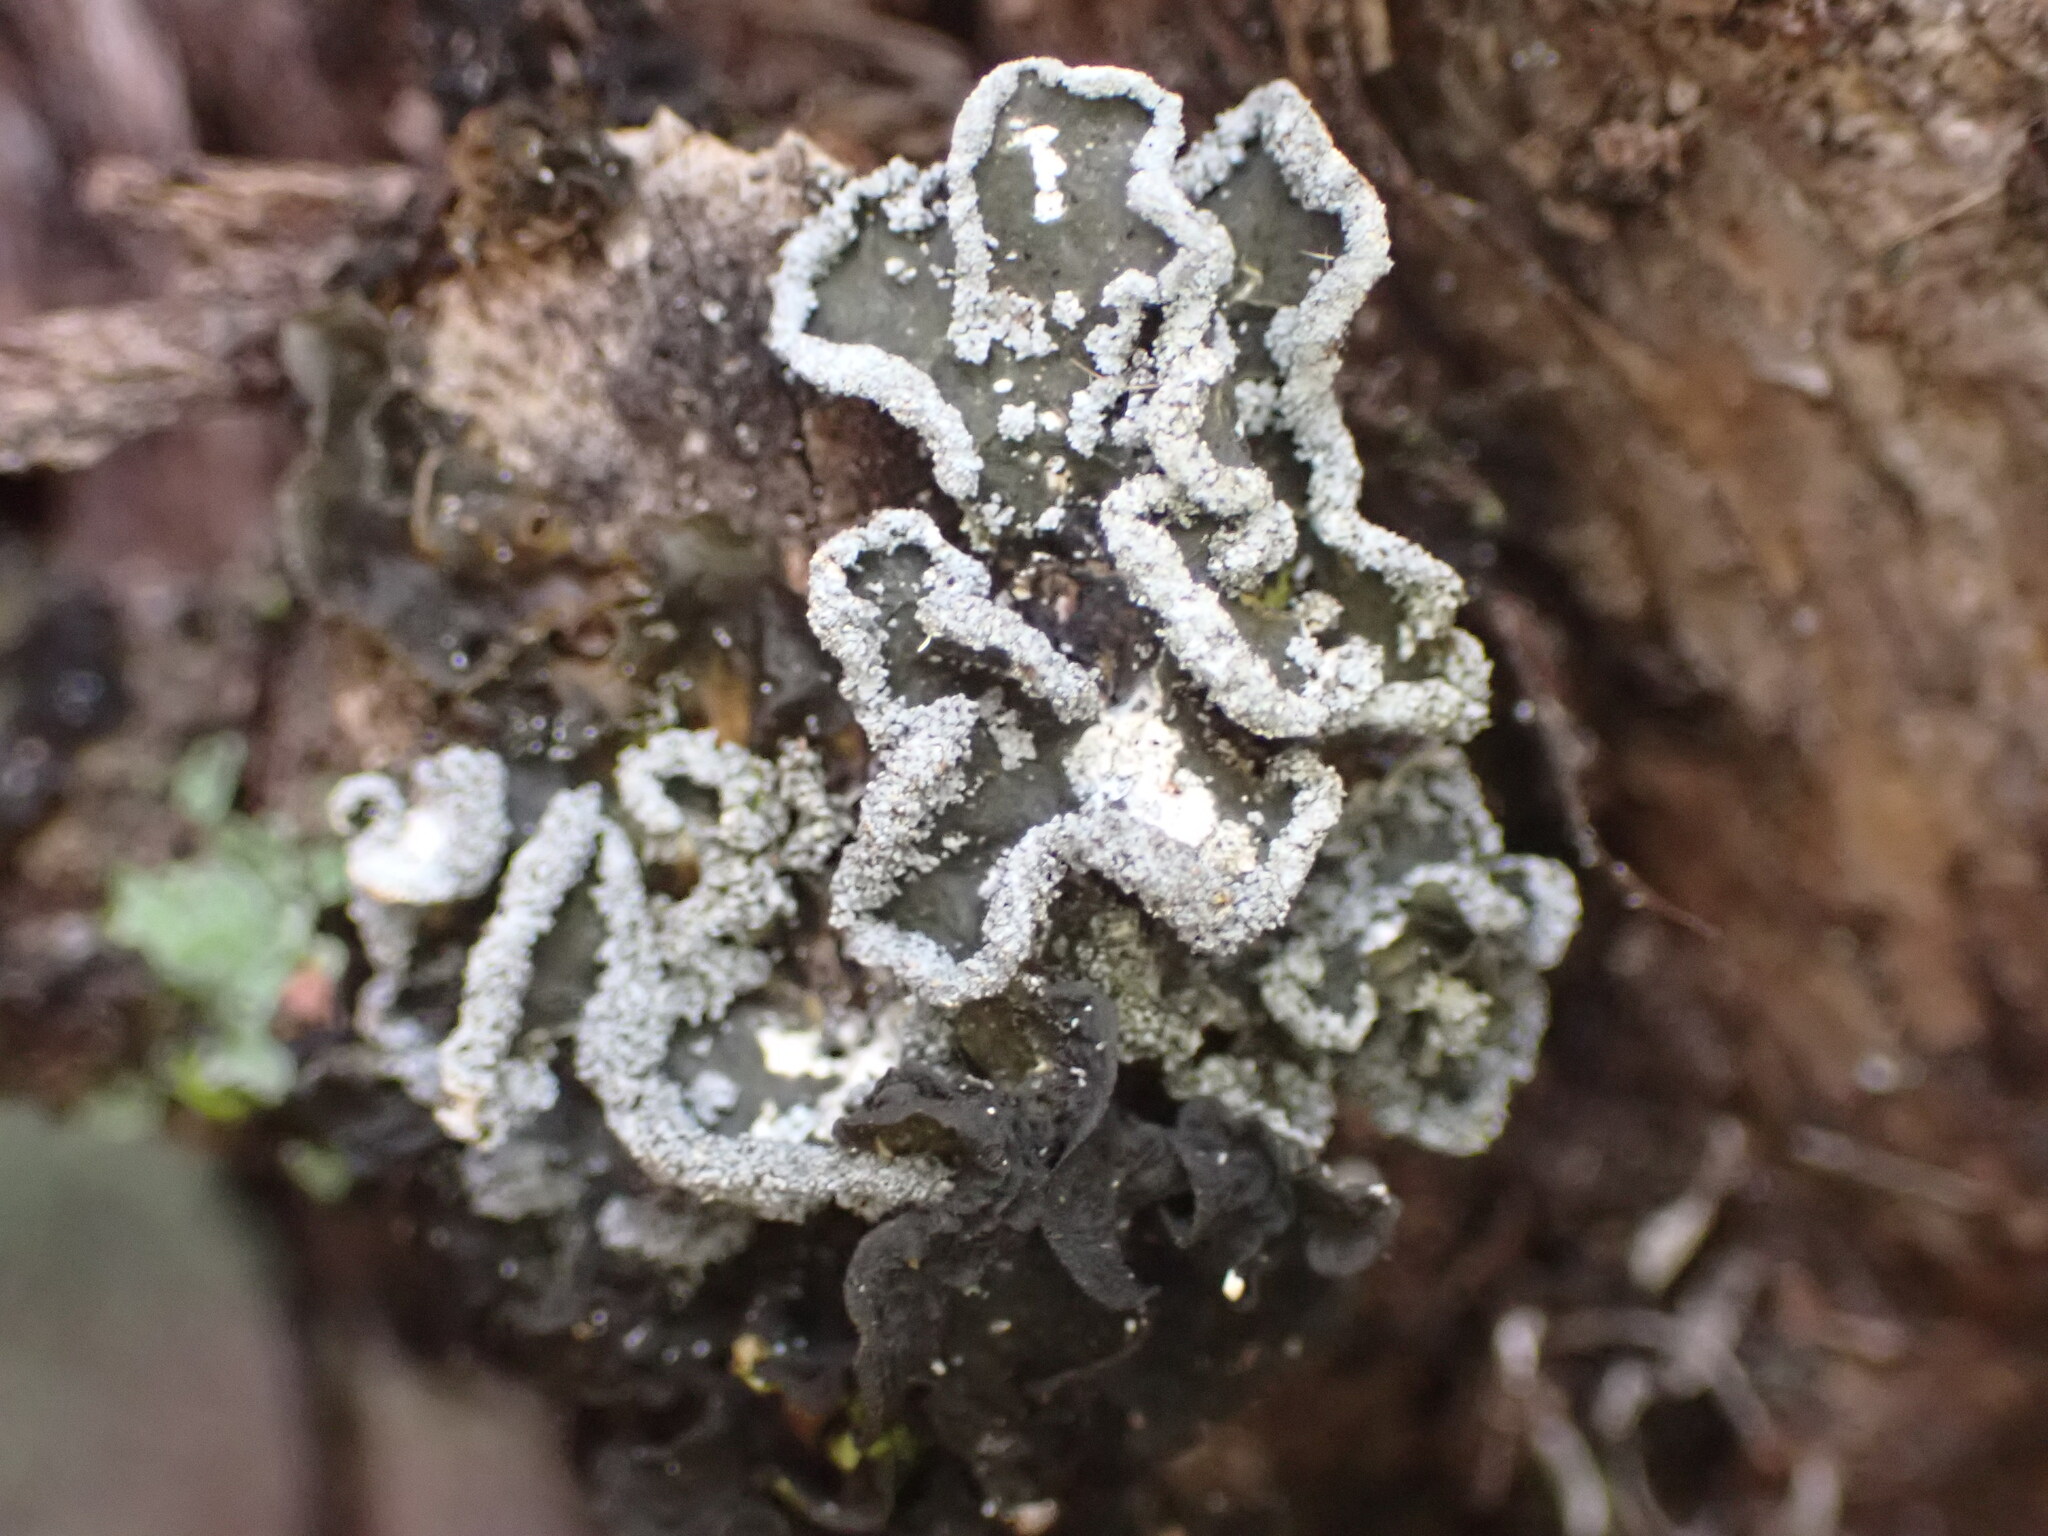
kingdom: Fungi
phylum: Ascomycota
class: Lecanoromycetes
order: Peltigerales
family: Pannariaceae
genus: Pannaria
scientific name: Pannaria fulvescens
